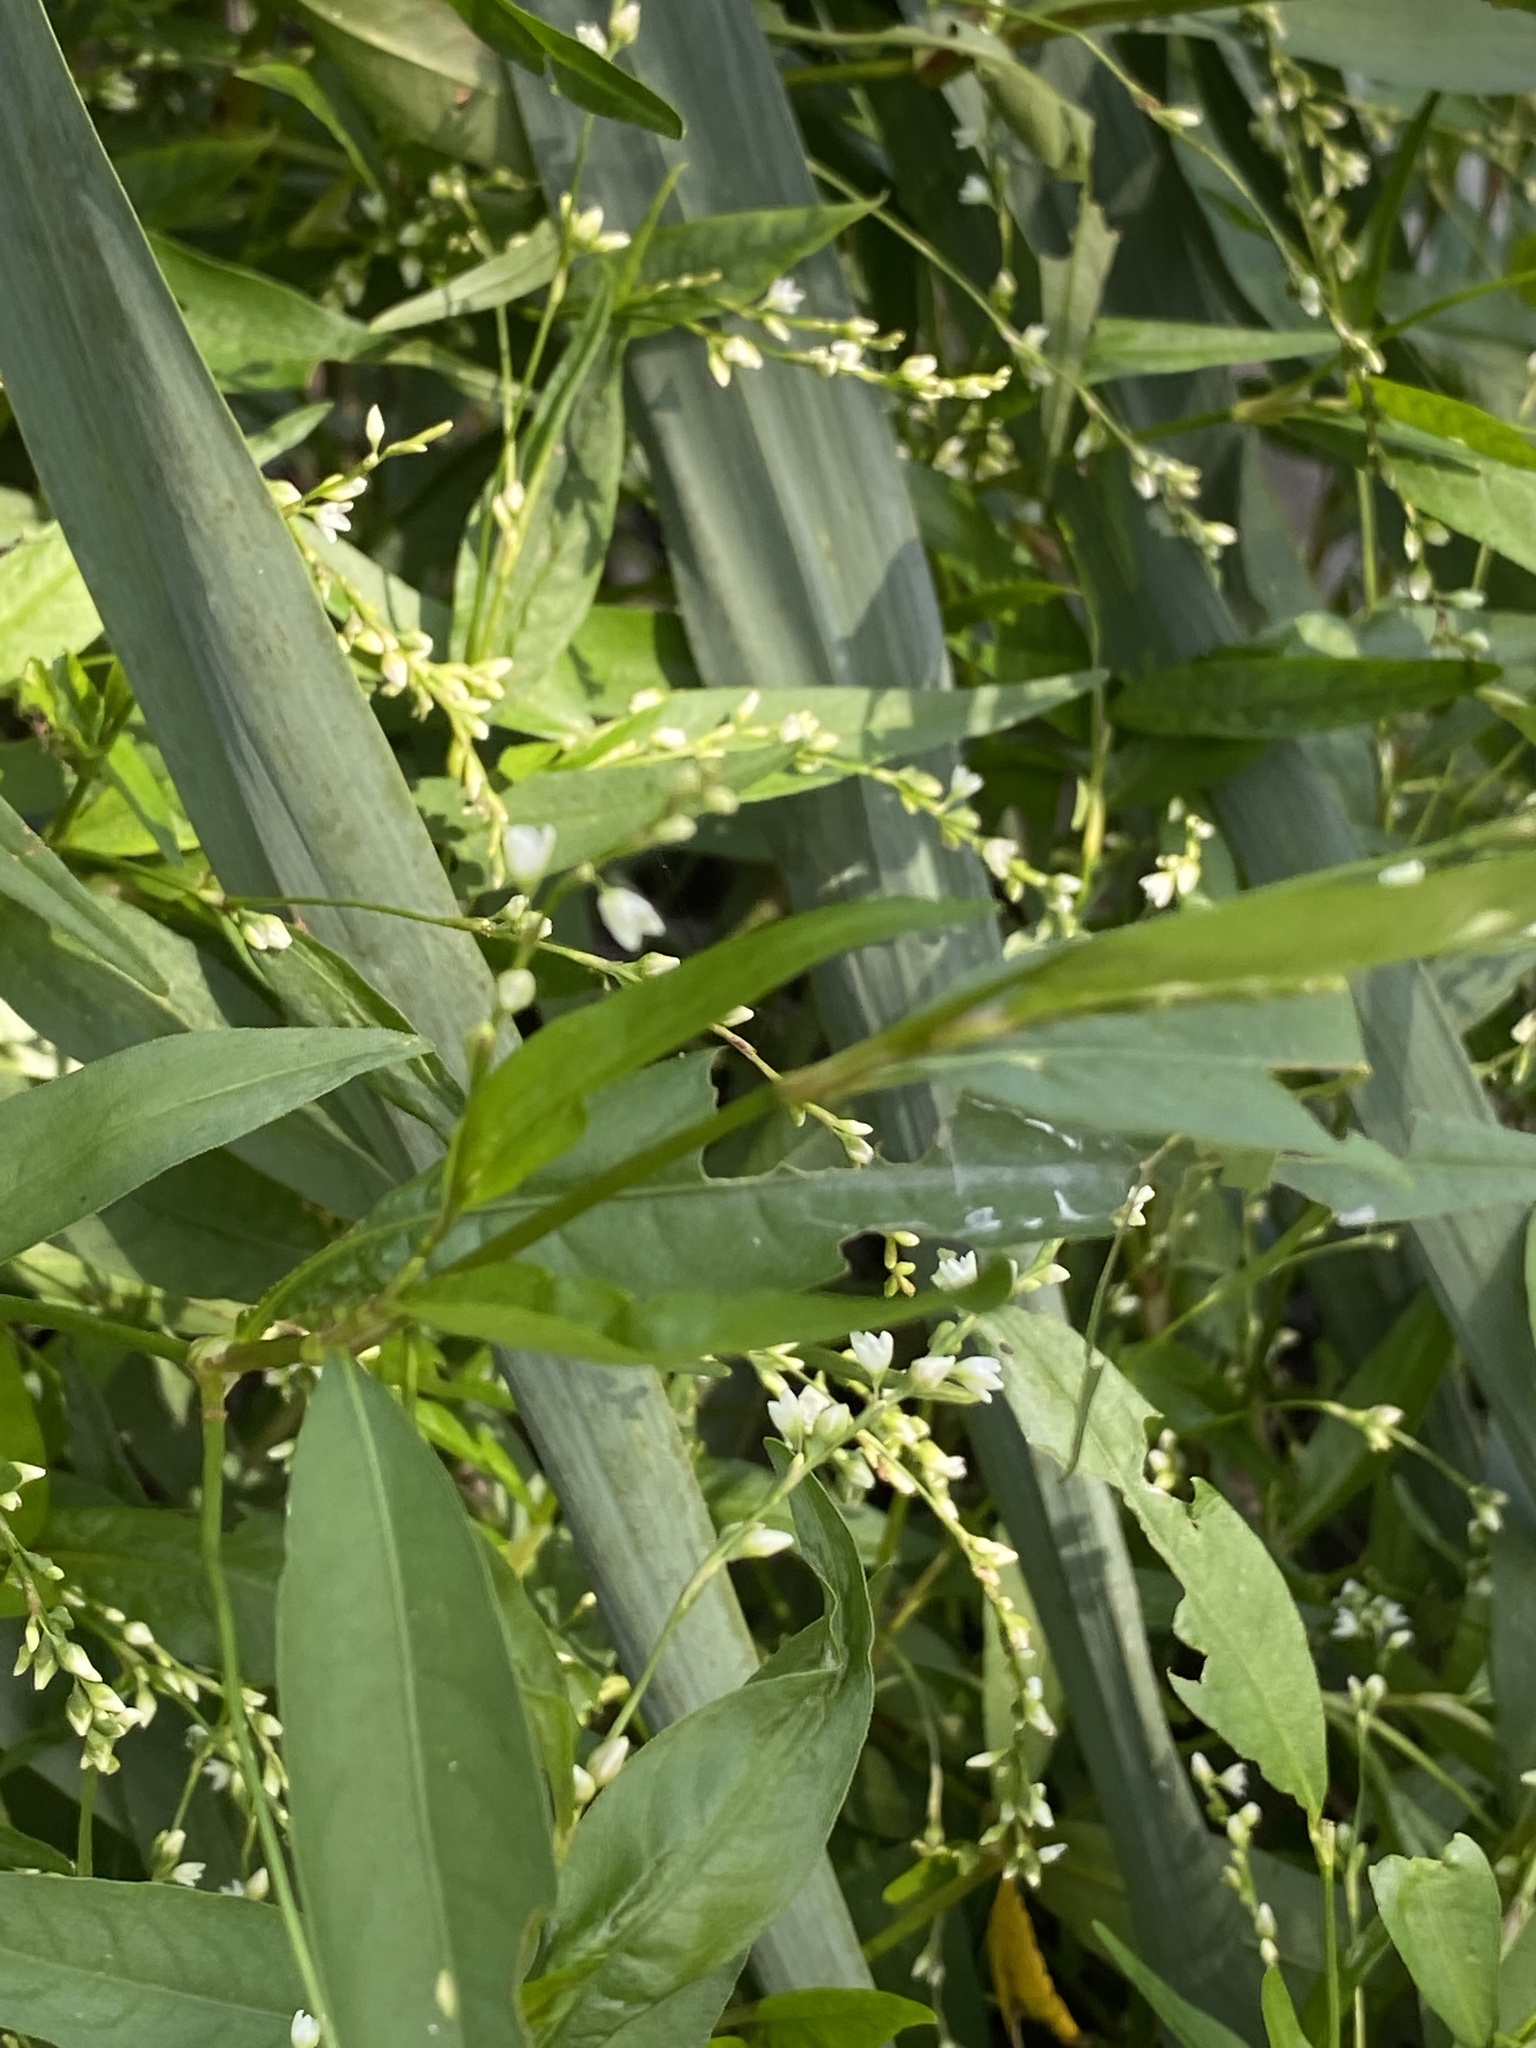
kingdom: Plantae
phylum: Tracheophyta
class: Magnoliopsida
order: Caryophyllales
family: Polygonaceae
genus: Persicaria
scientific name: Persicaria punctata
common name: Dotted smartweed
